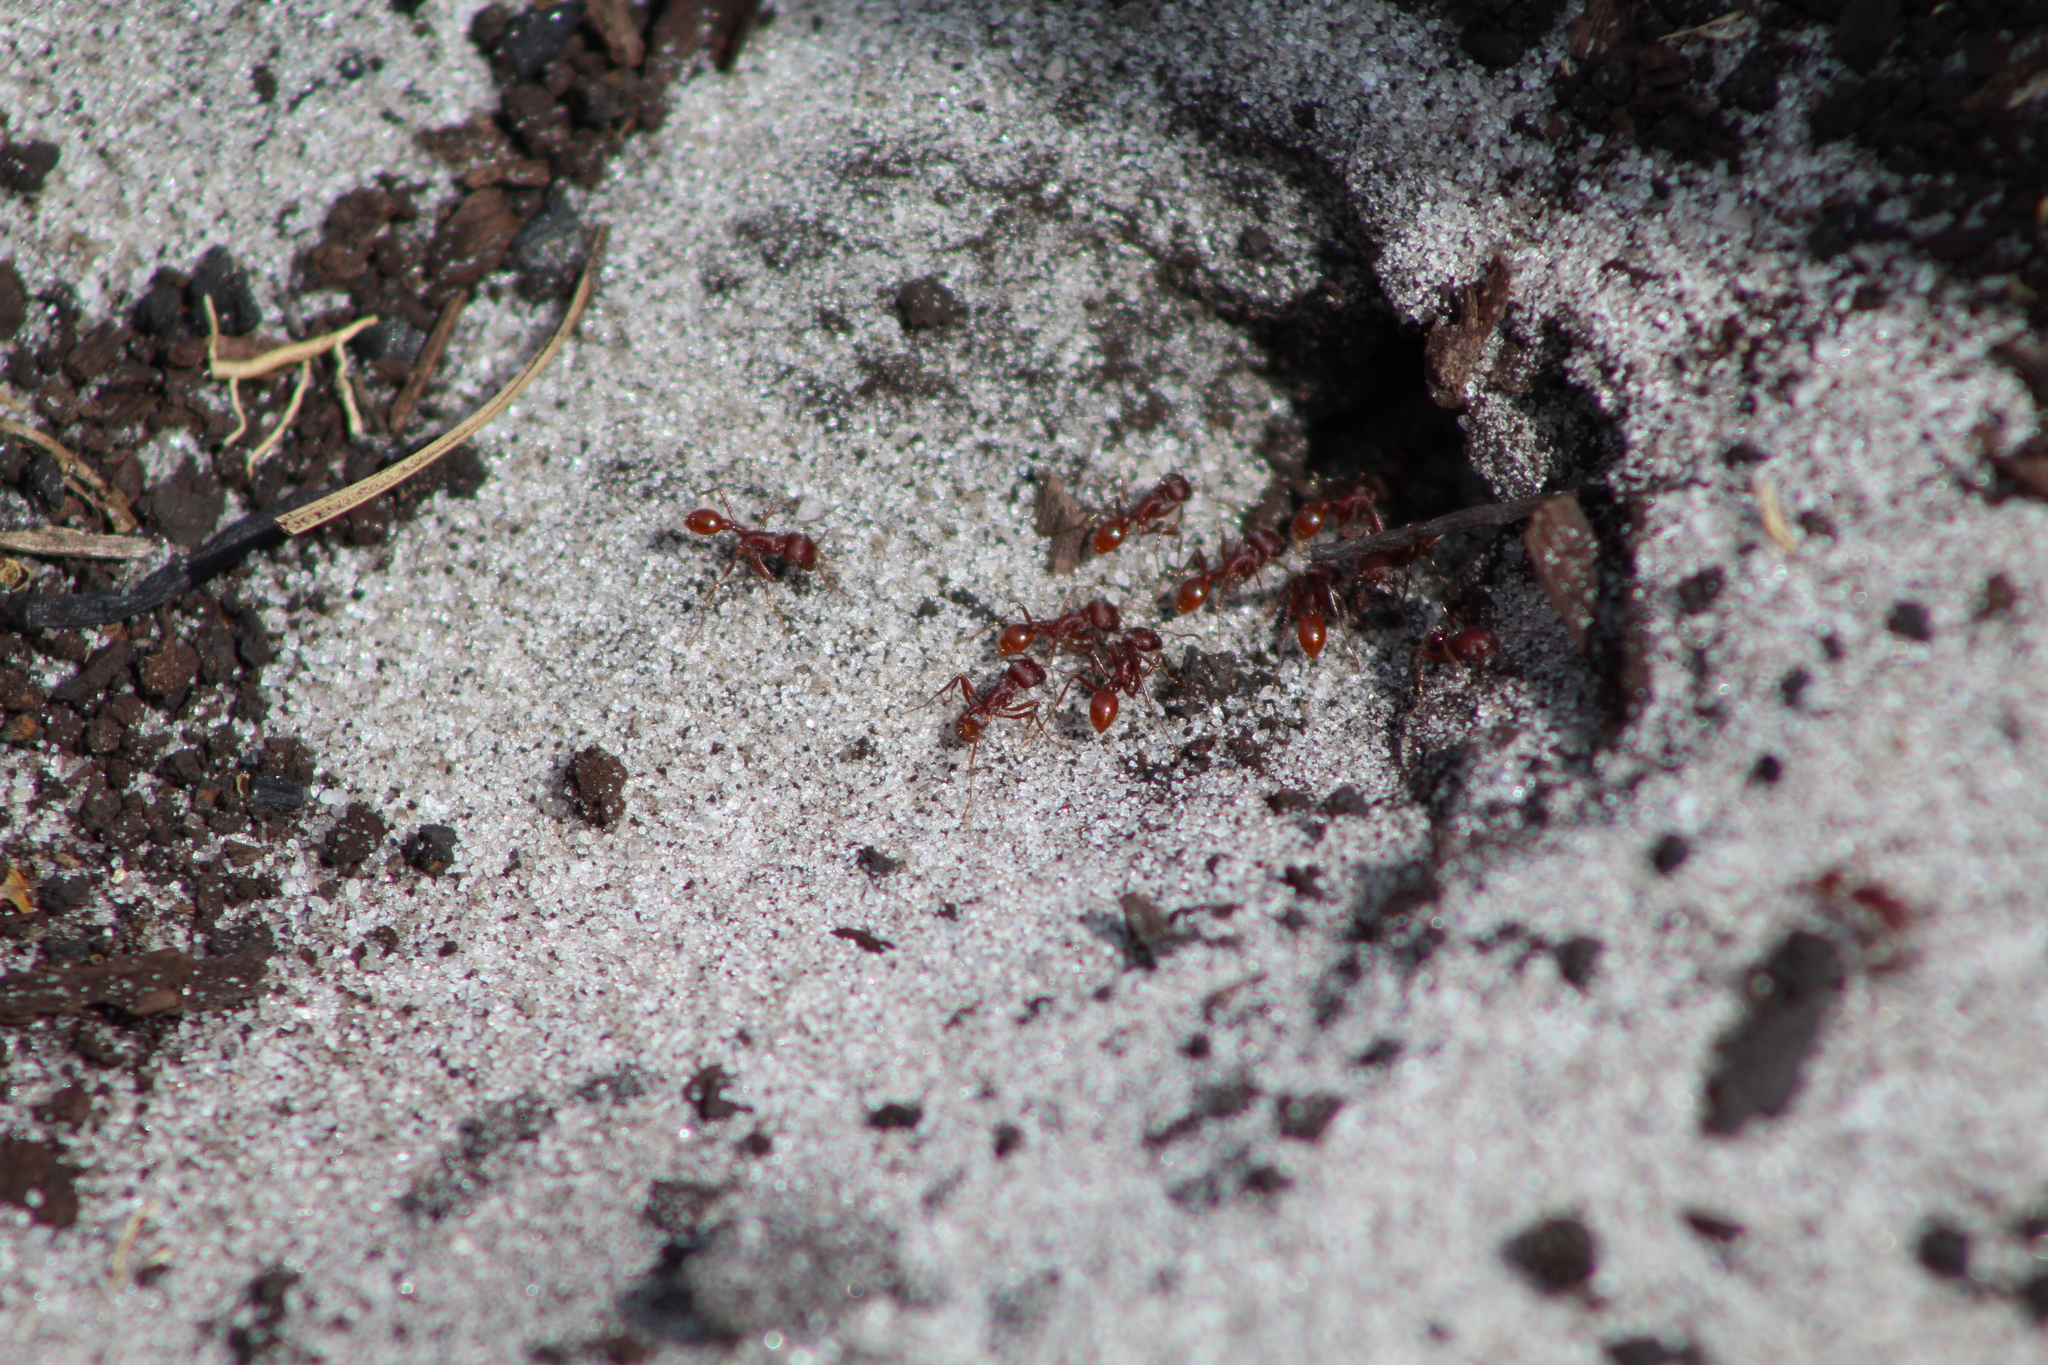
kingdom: Animalia
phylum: Arthropoda
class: Insecta
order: Hymenoptera
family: Formicidae
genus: Pogonomyrmex
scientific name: Pogonomyrmex badius
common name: Florida harvester ant
